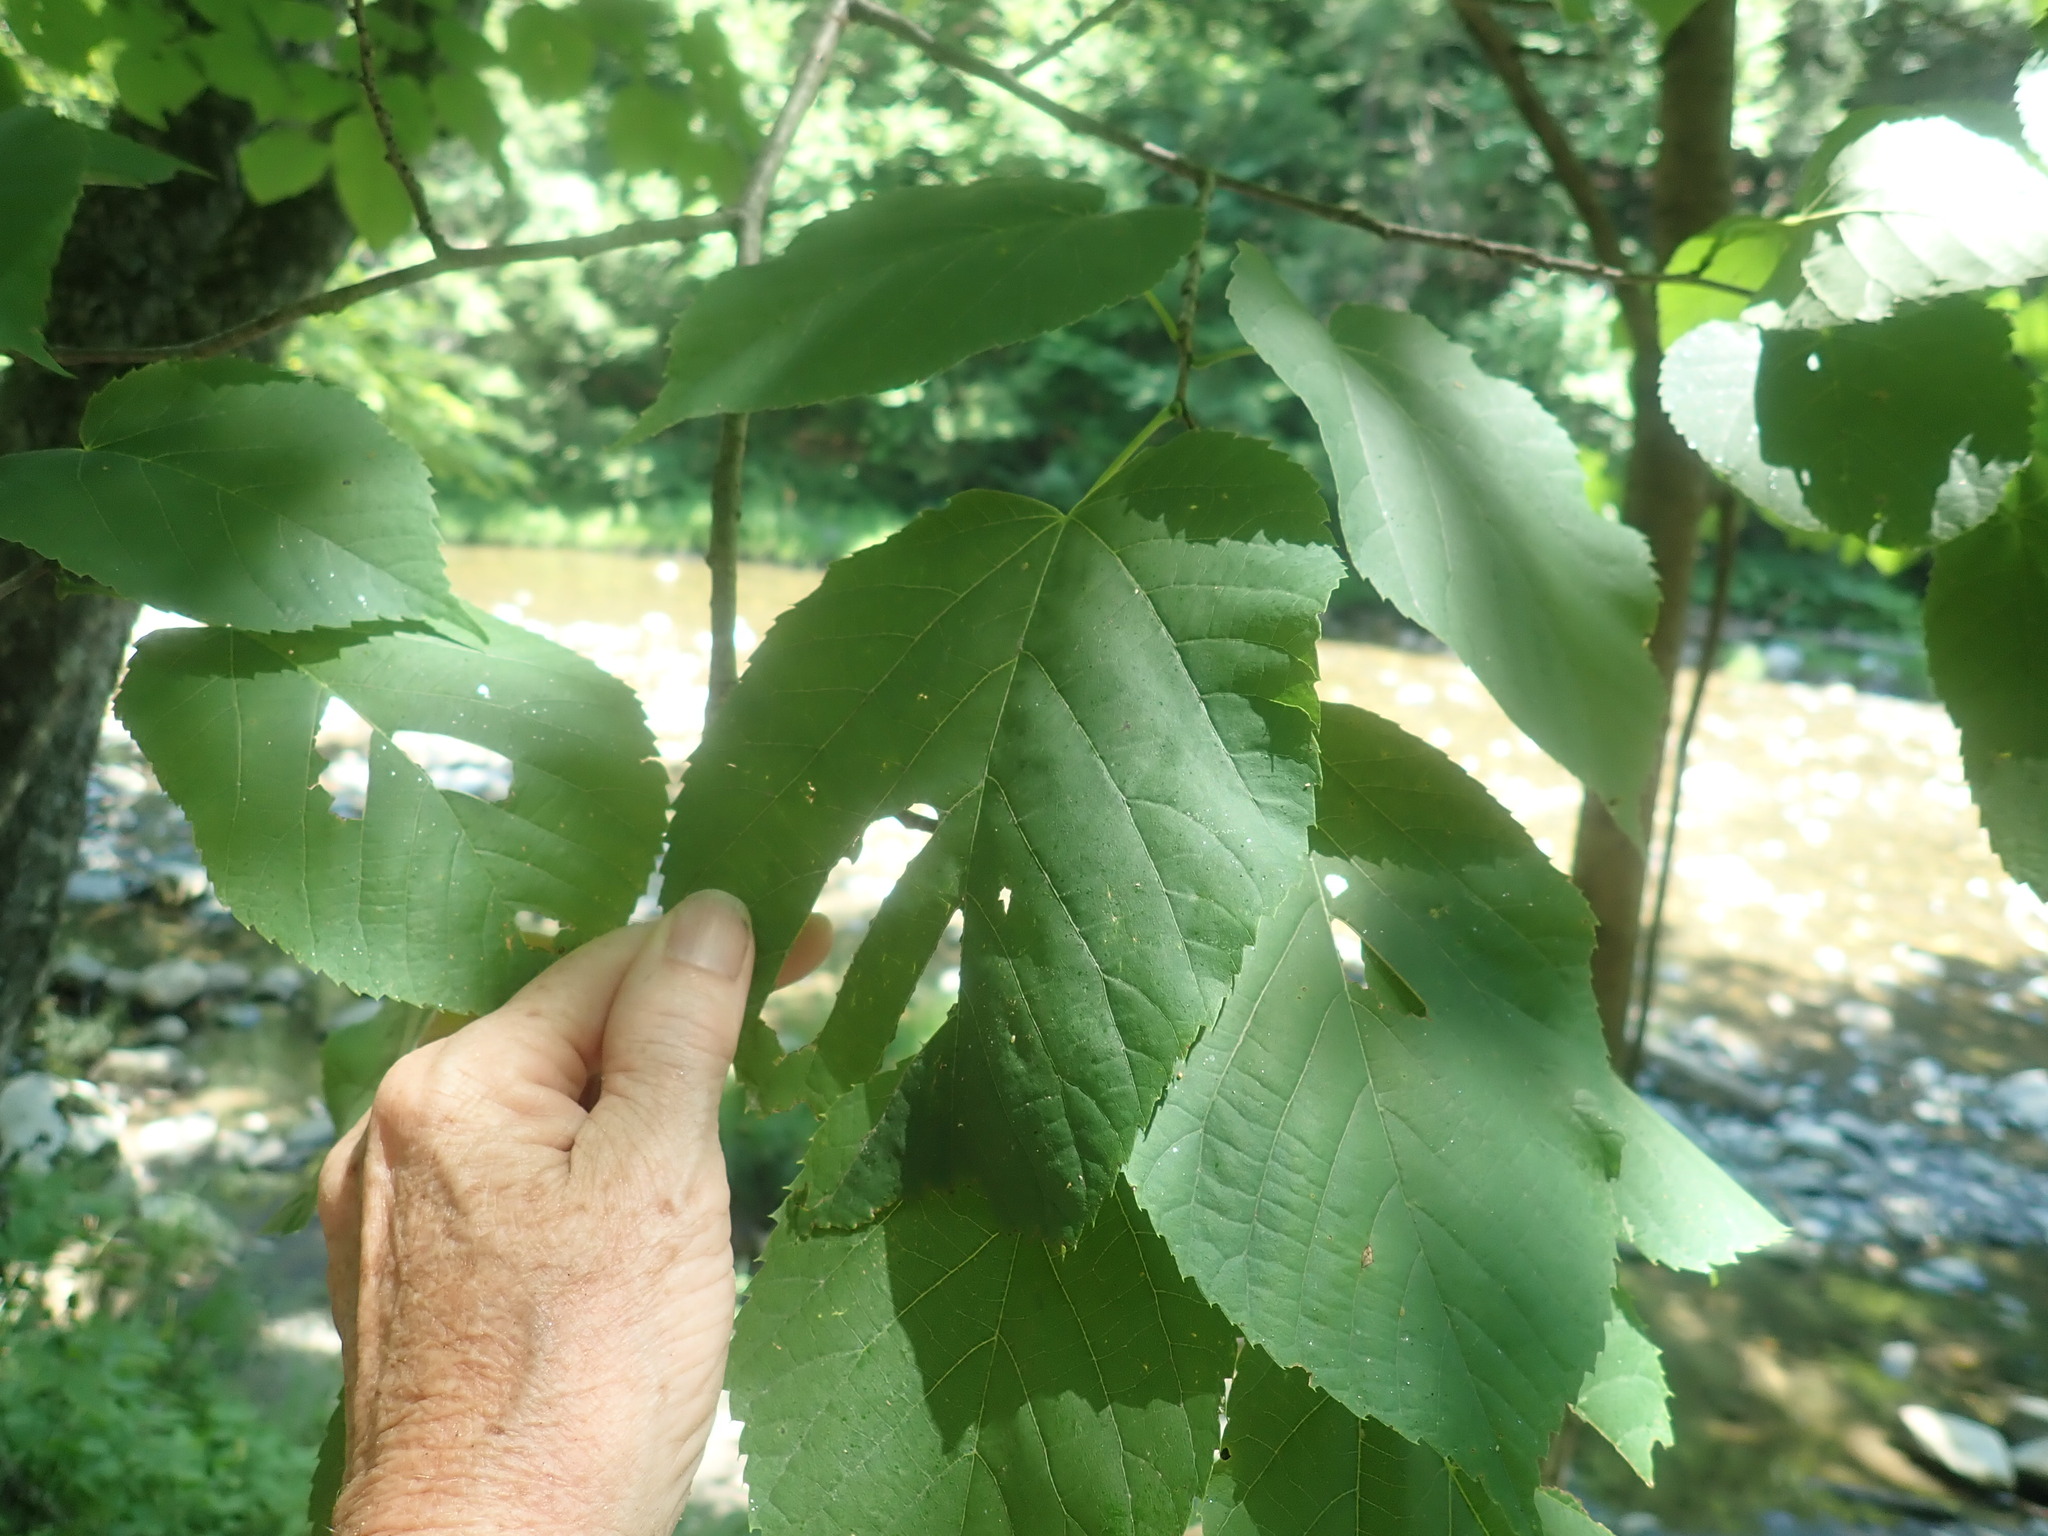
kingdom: Plantae
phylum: Tracheophyta
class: Magnoliopsida
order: Malvales
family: Malvaceae
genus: Tilia
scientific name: Tilia americana
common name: Basswood
